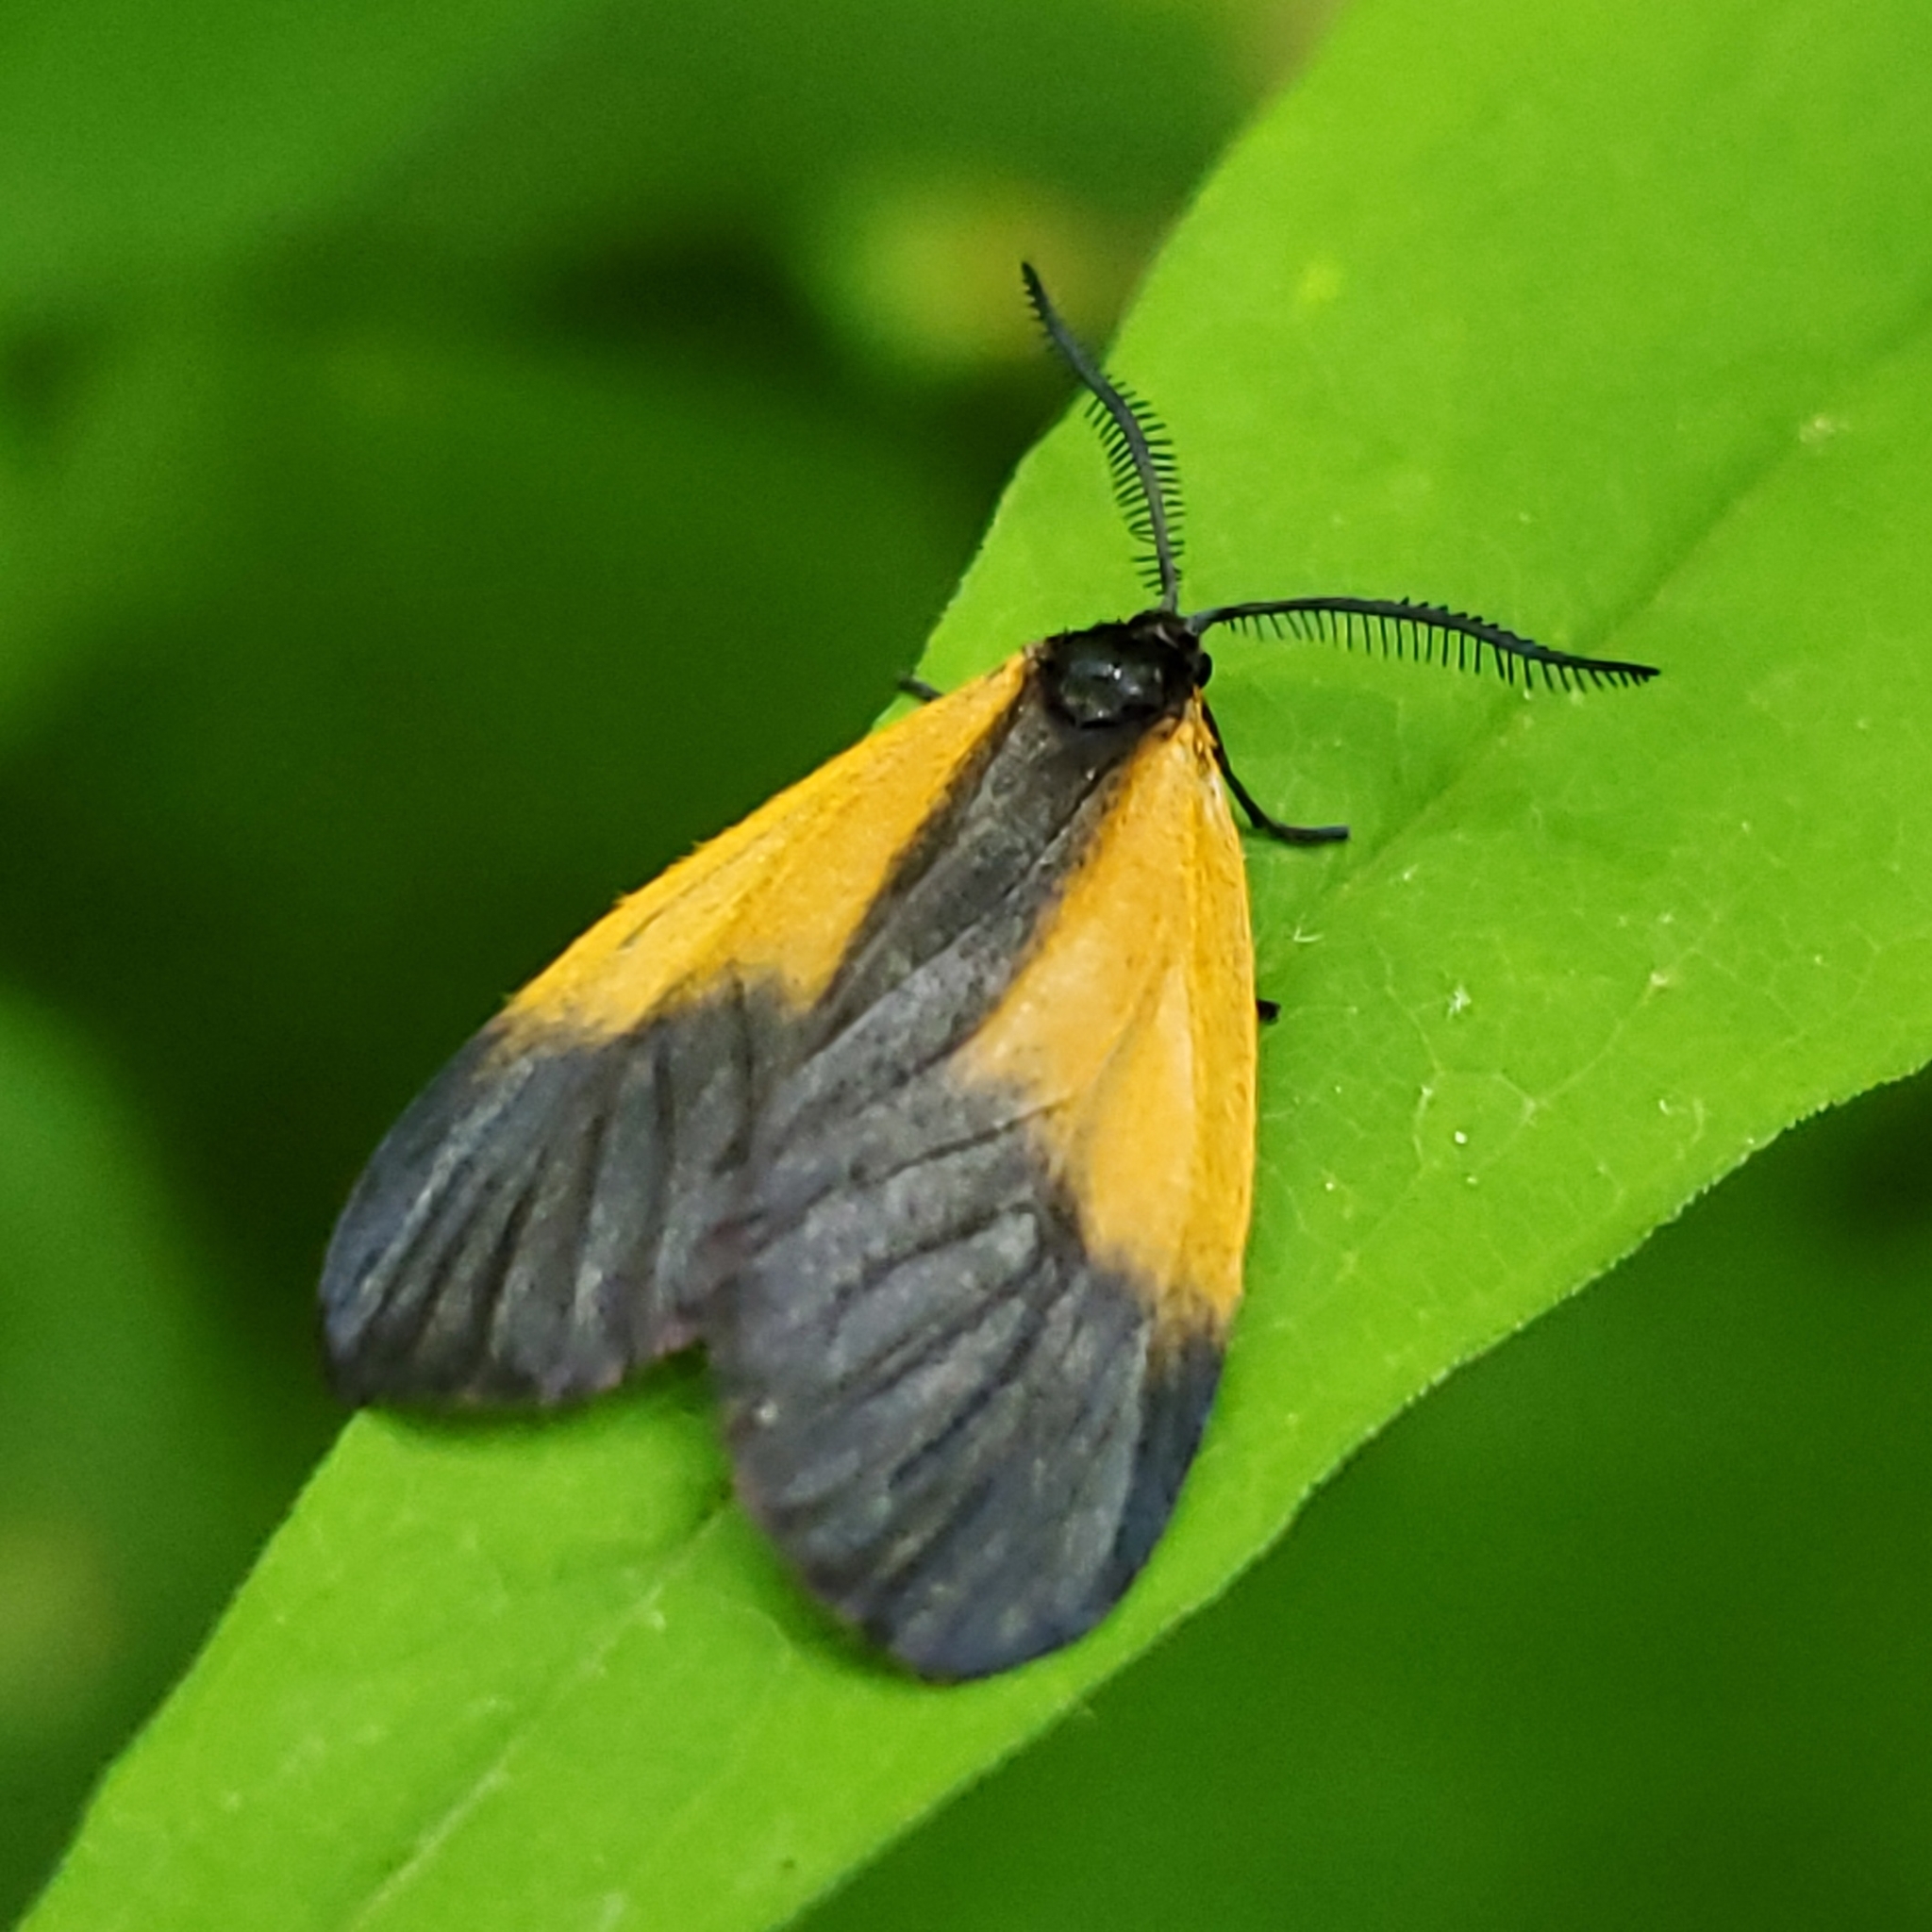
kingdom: Animalia
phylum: Arthropoda
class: Insecta
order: Lepidoptera
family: Zygaenidae
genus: Malthaca
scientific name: Malthaca dimidiata
